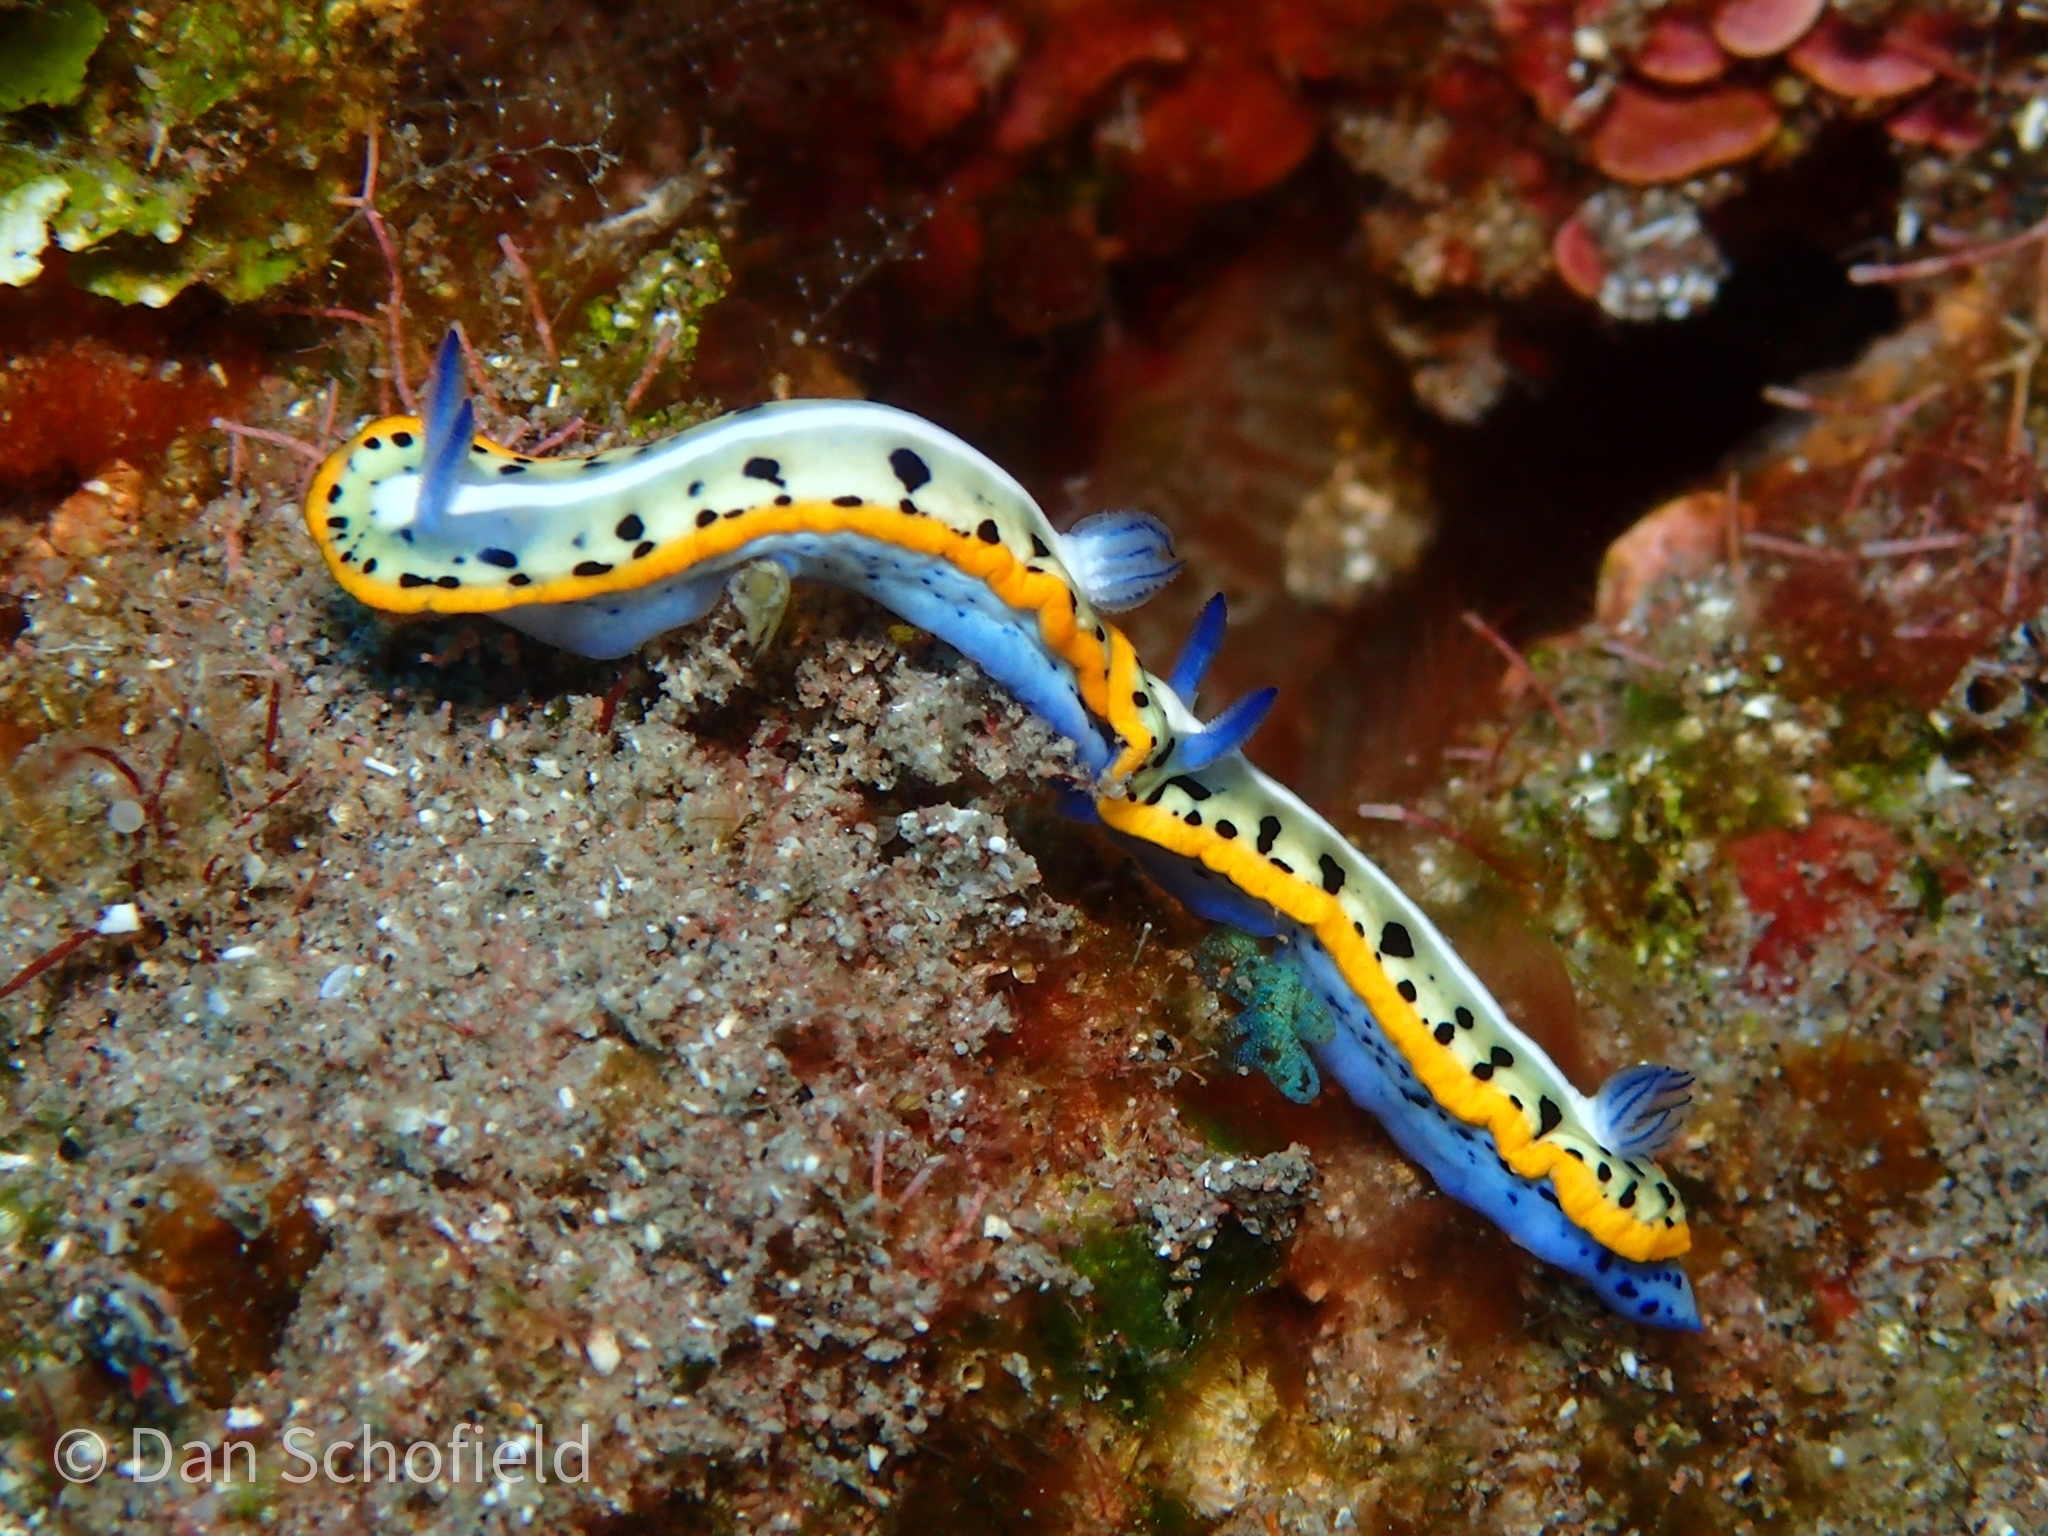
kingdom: Animalia
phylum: Mollusca
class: Gastropoda
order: Nudibranchia
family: Chromodorididae
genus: Felimare
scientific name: Felimare kempfi
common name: Purple-crowned sea goddess
